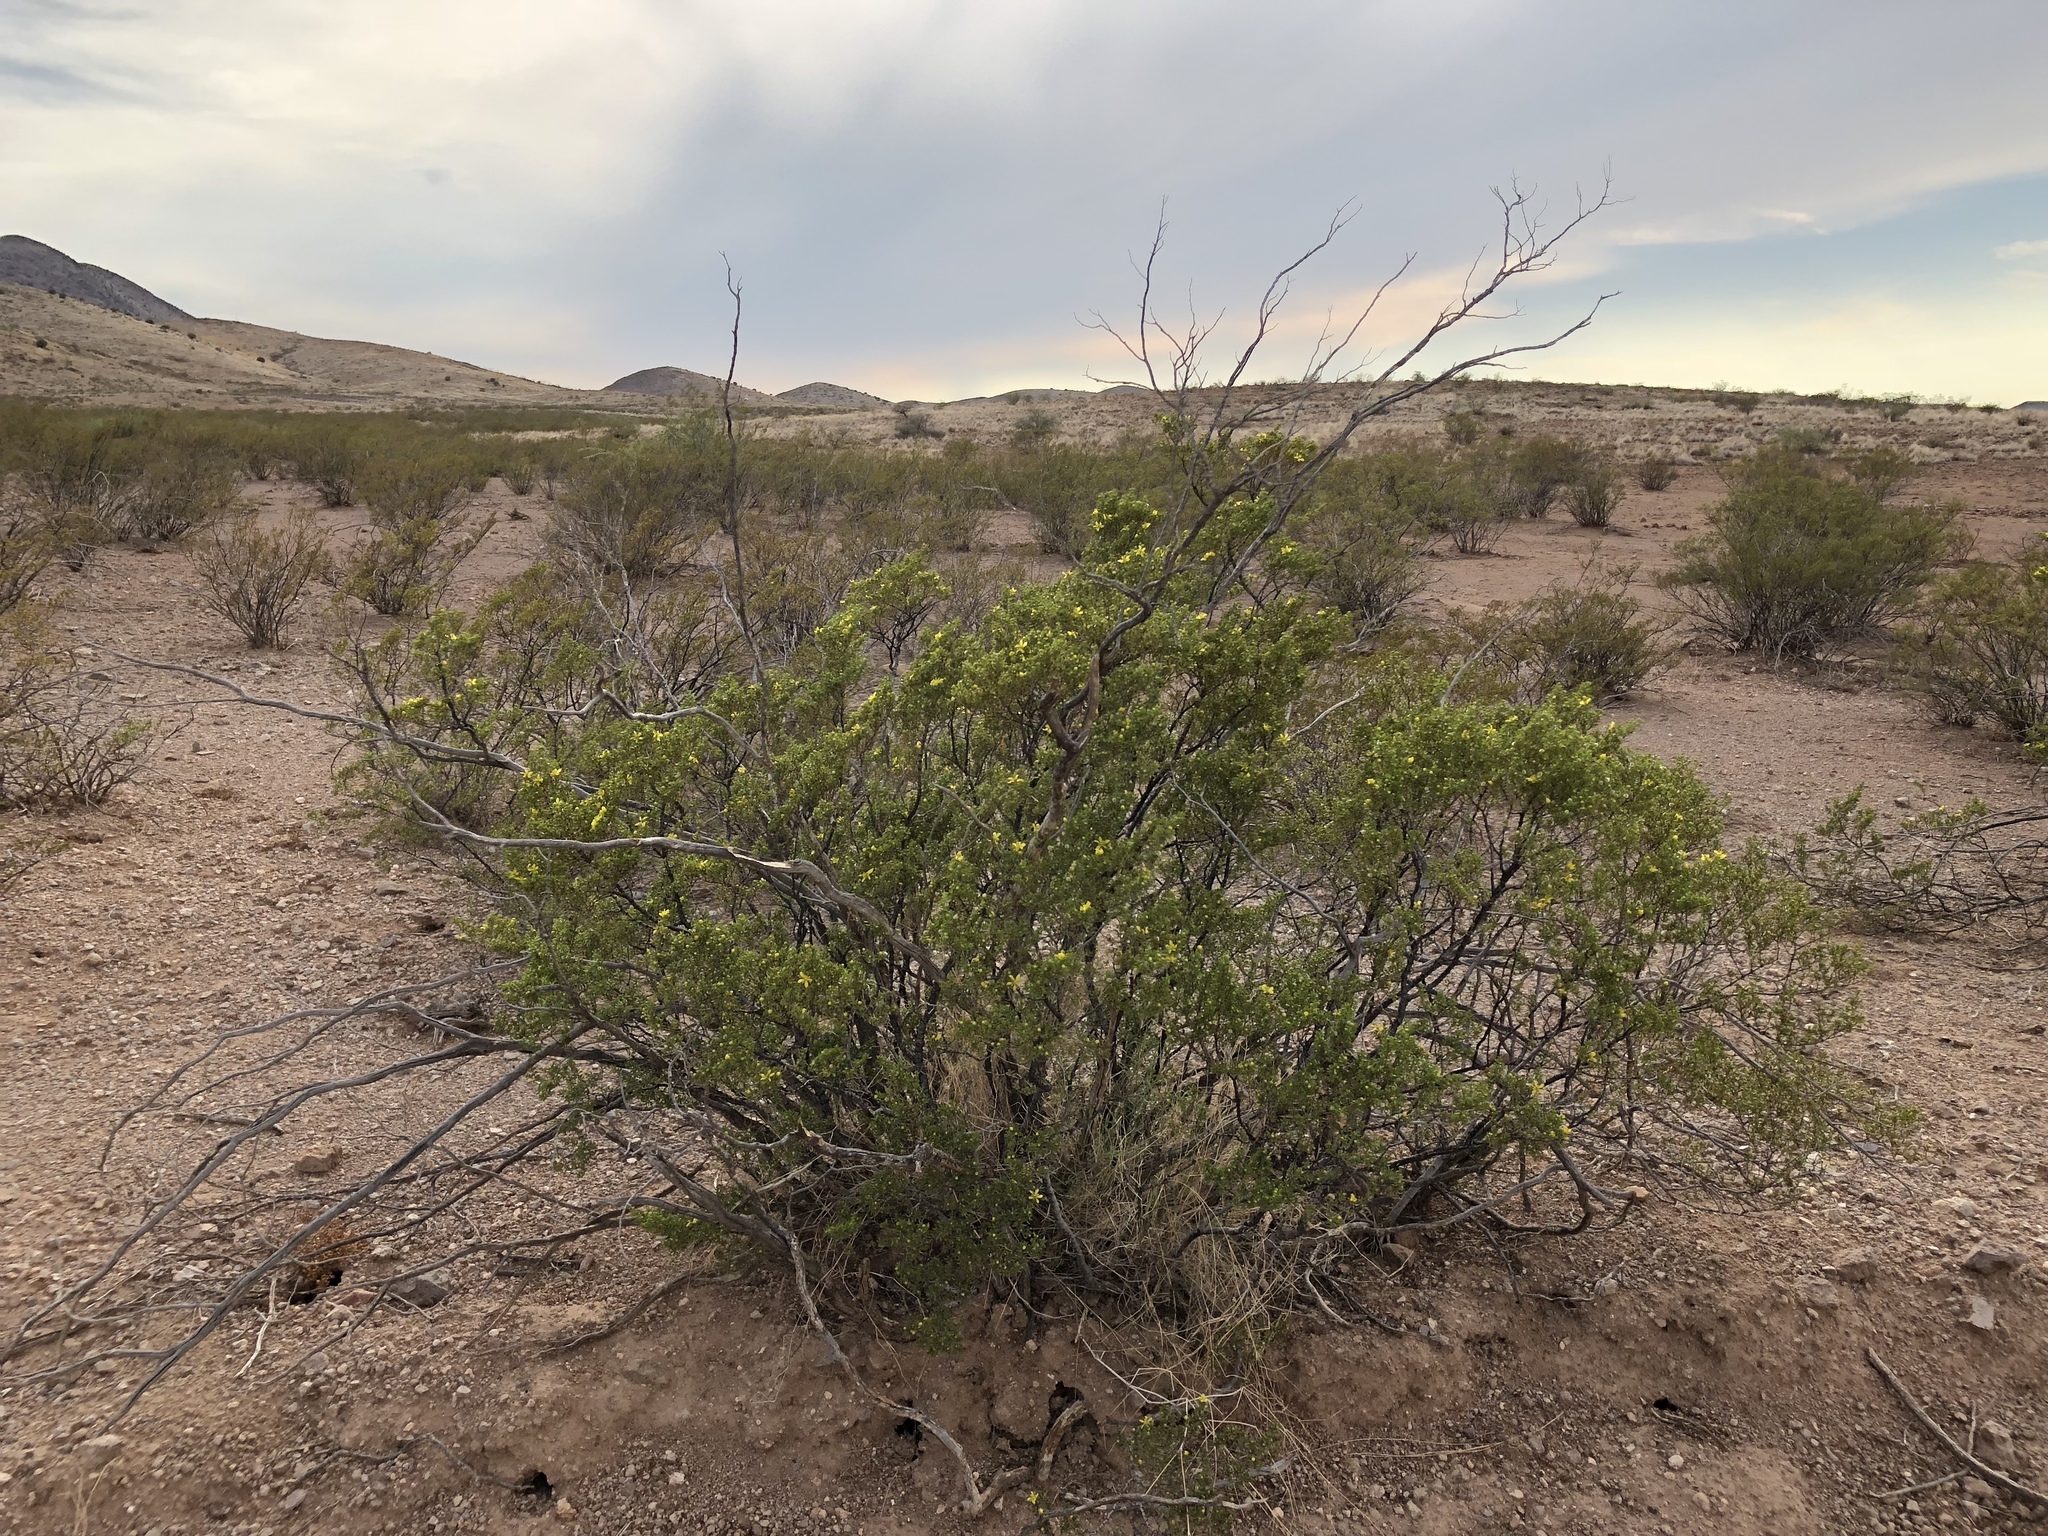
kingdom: Plantae
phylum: Tracheophyta
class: Magnoliopsida
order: Zygophyllales
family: Zygophyllaceae
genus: Larrea
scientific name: Larrea tridentata
